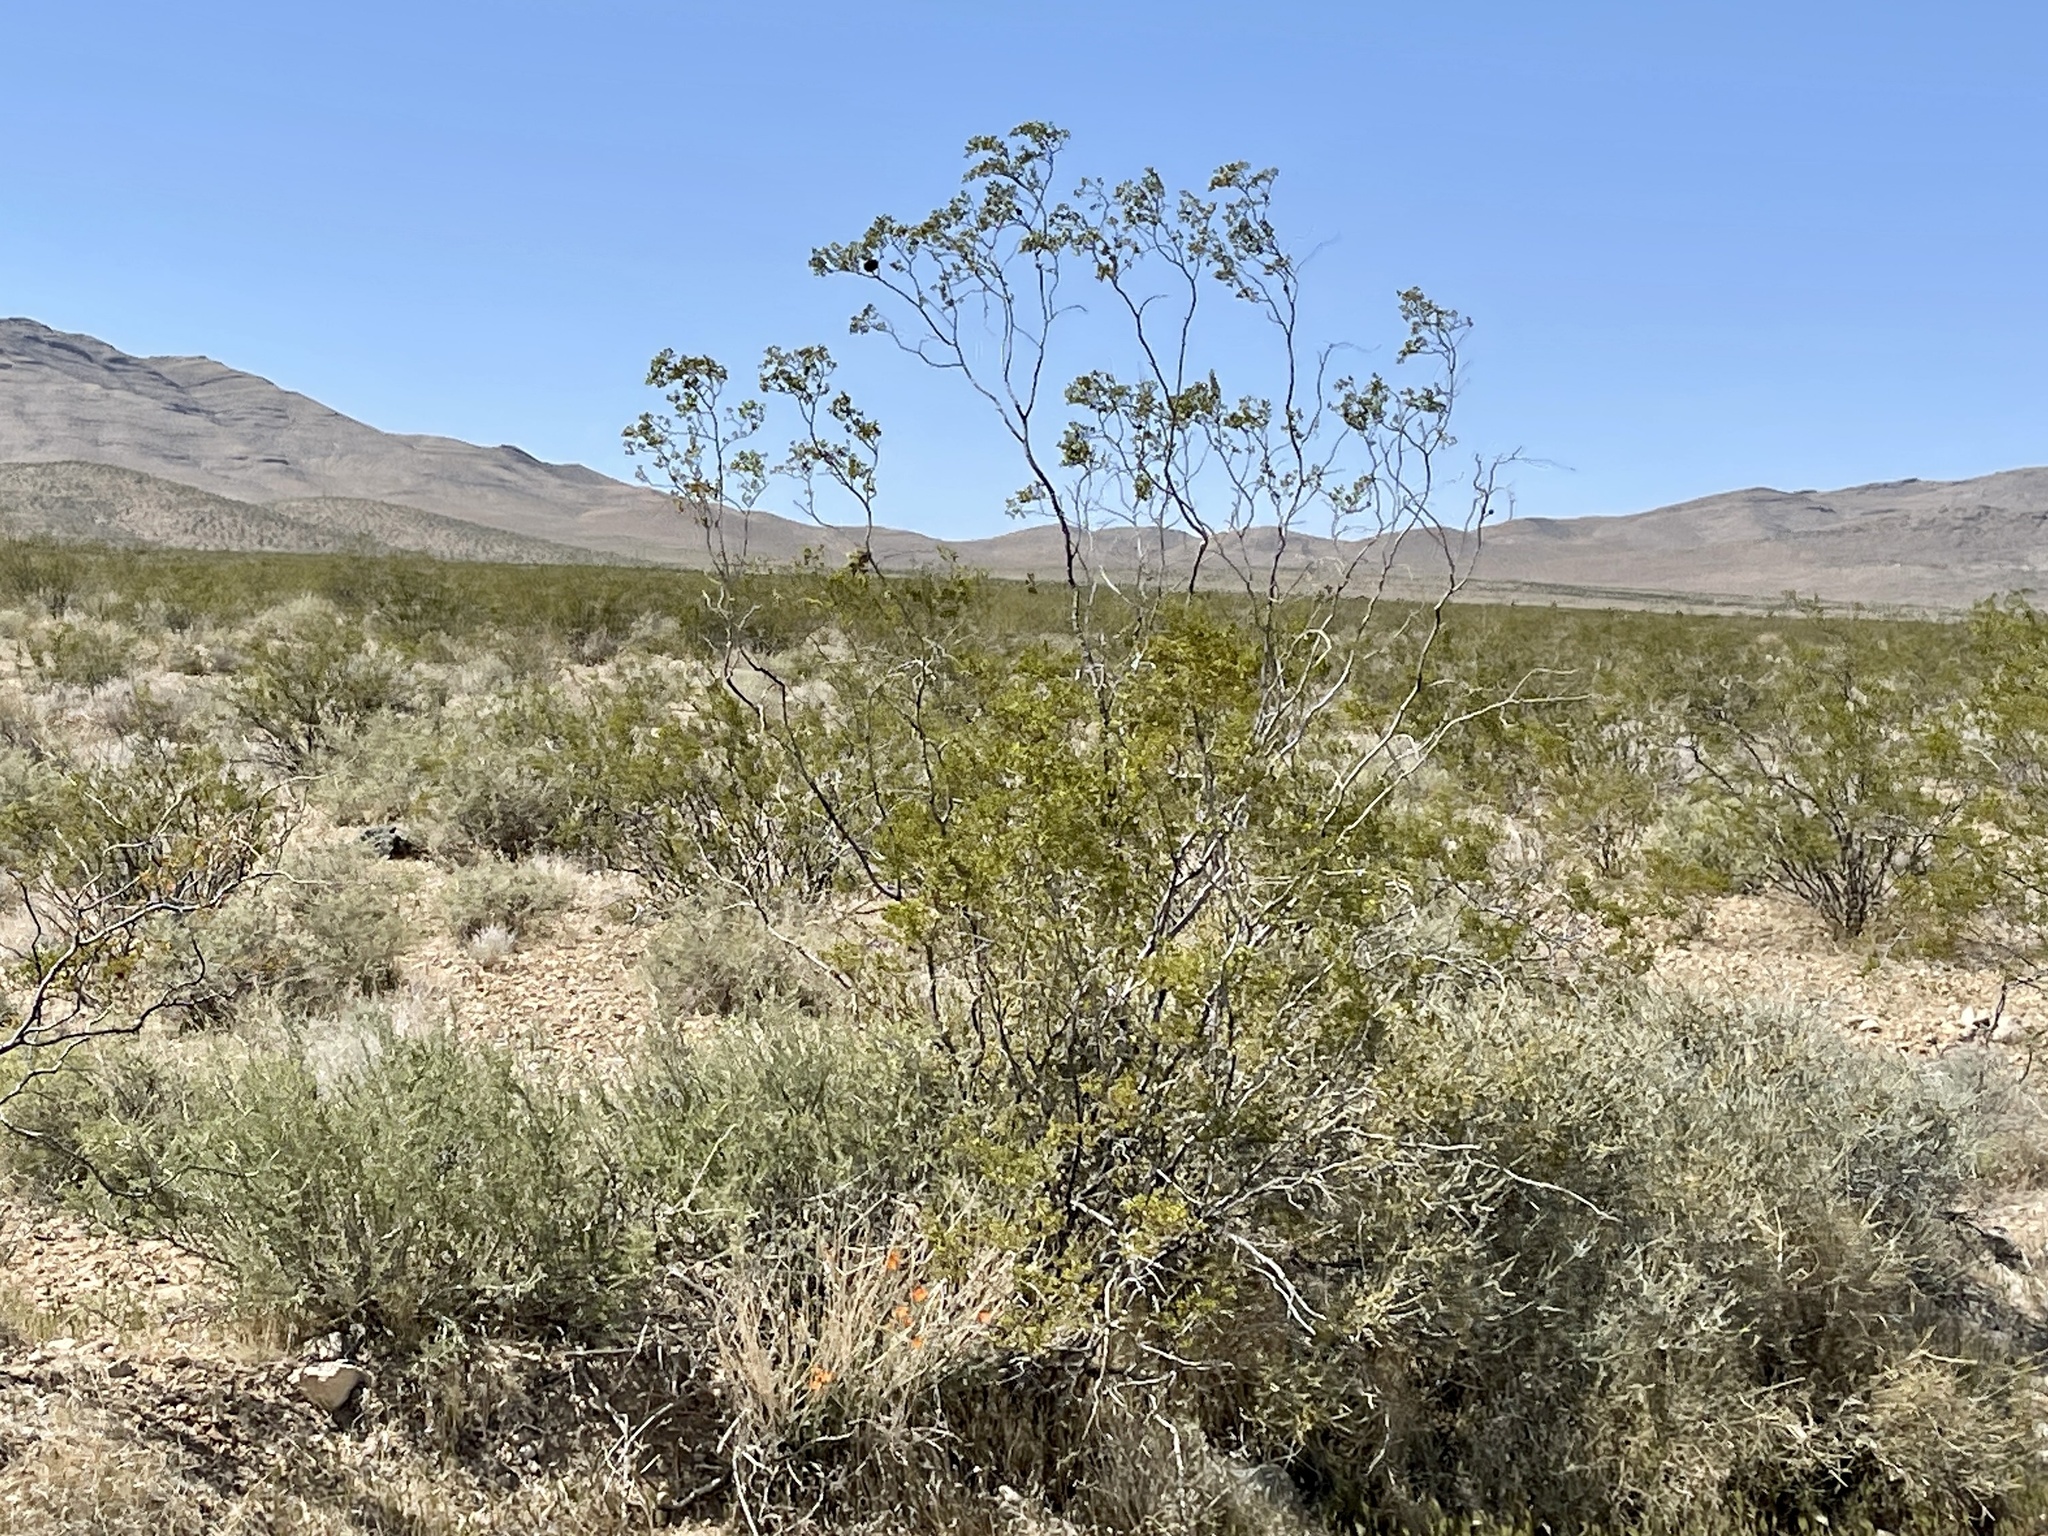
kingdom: Plantae
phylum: Tracheophyta
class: Magnoliopsida
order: Zygophyllales
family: Zygophyllaceae
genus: Larrea
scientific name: Larrea tridentata
